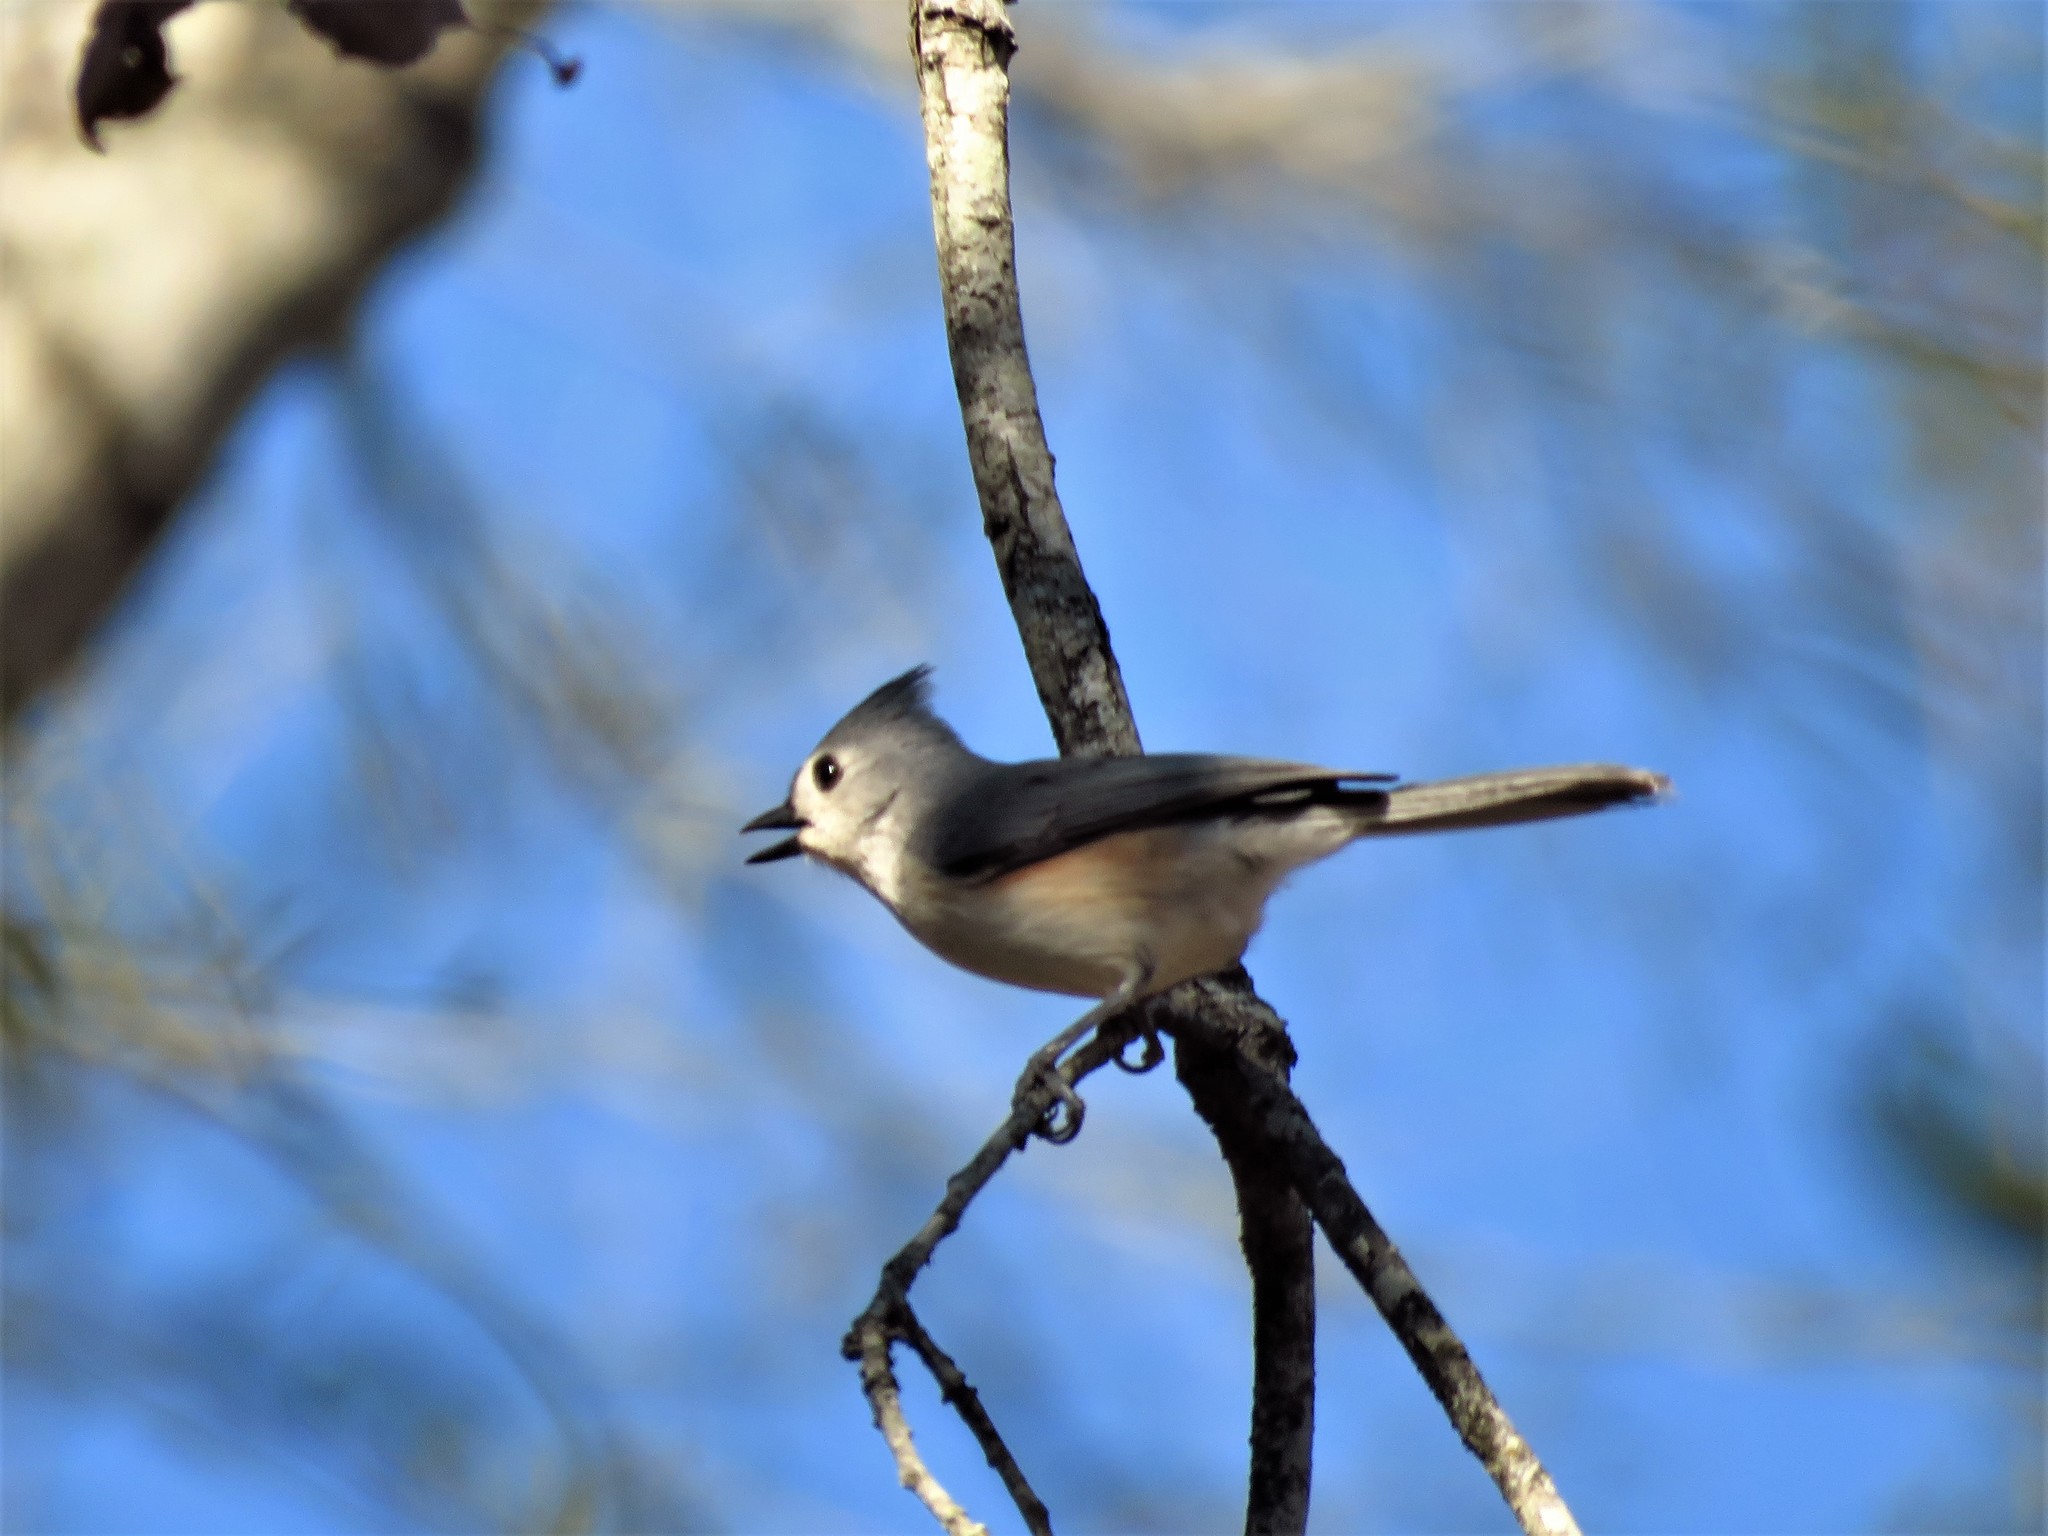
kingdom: Animalia
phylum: Chordata
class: Aves
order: Passeriformes
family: Paridae
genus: Baeolophus
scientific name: Baeolophus bicolor
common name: Tufted titmouse
